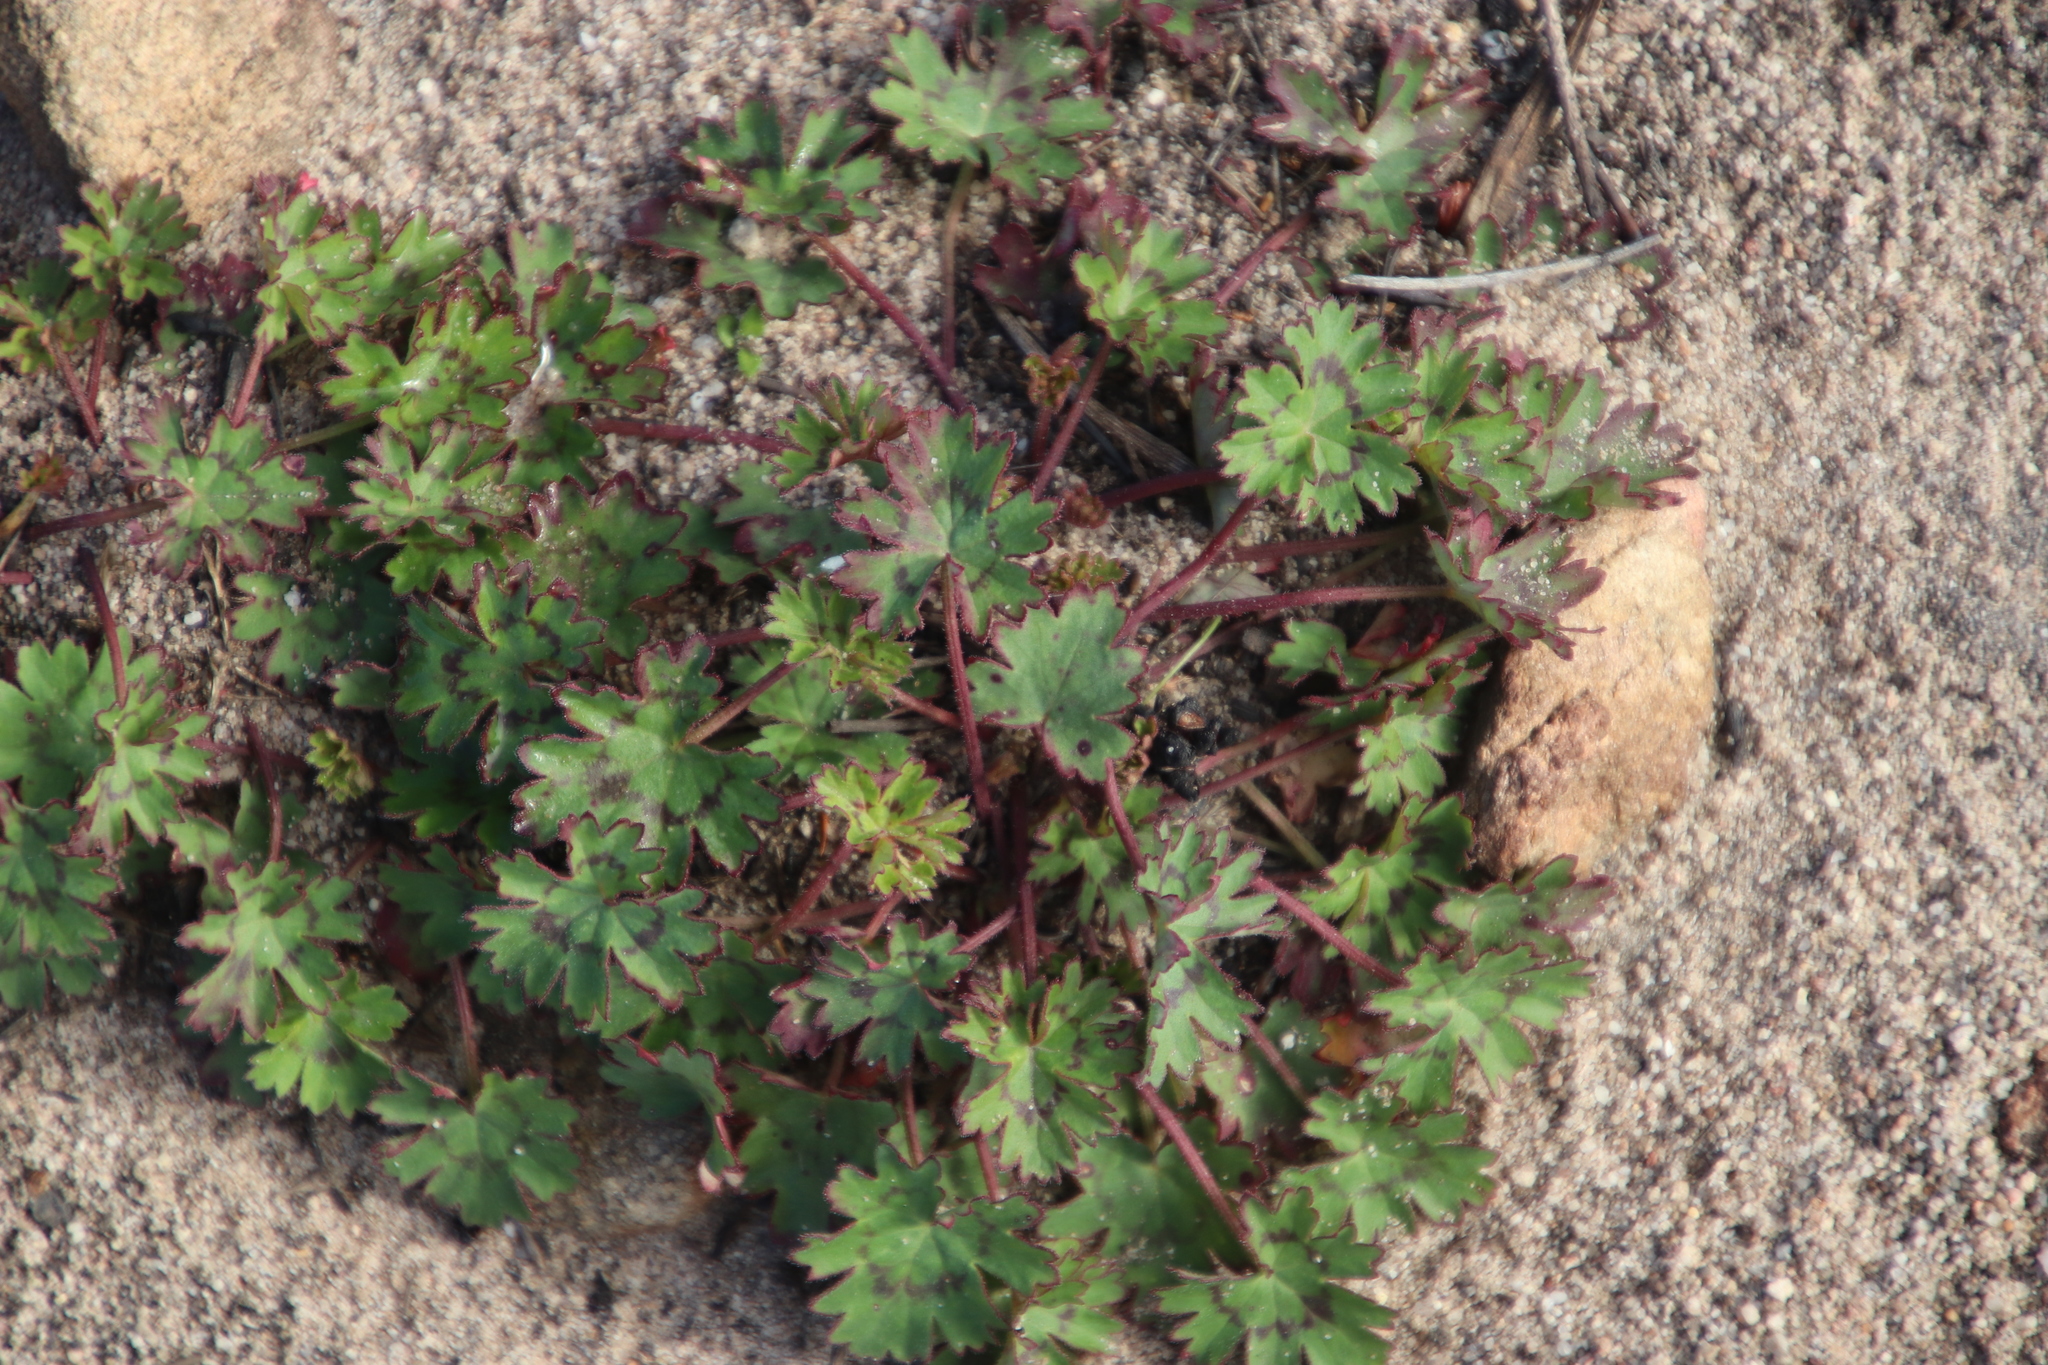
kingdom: Plantae
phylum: Tracheophyta
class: Magnoliopsida
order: Geraniales
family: Geraniaceae
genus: Pelargonium
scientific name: Pelargonium patulum
